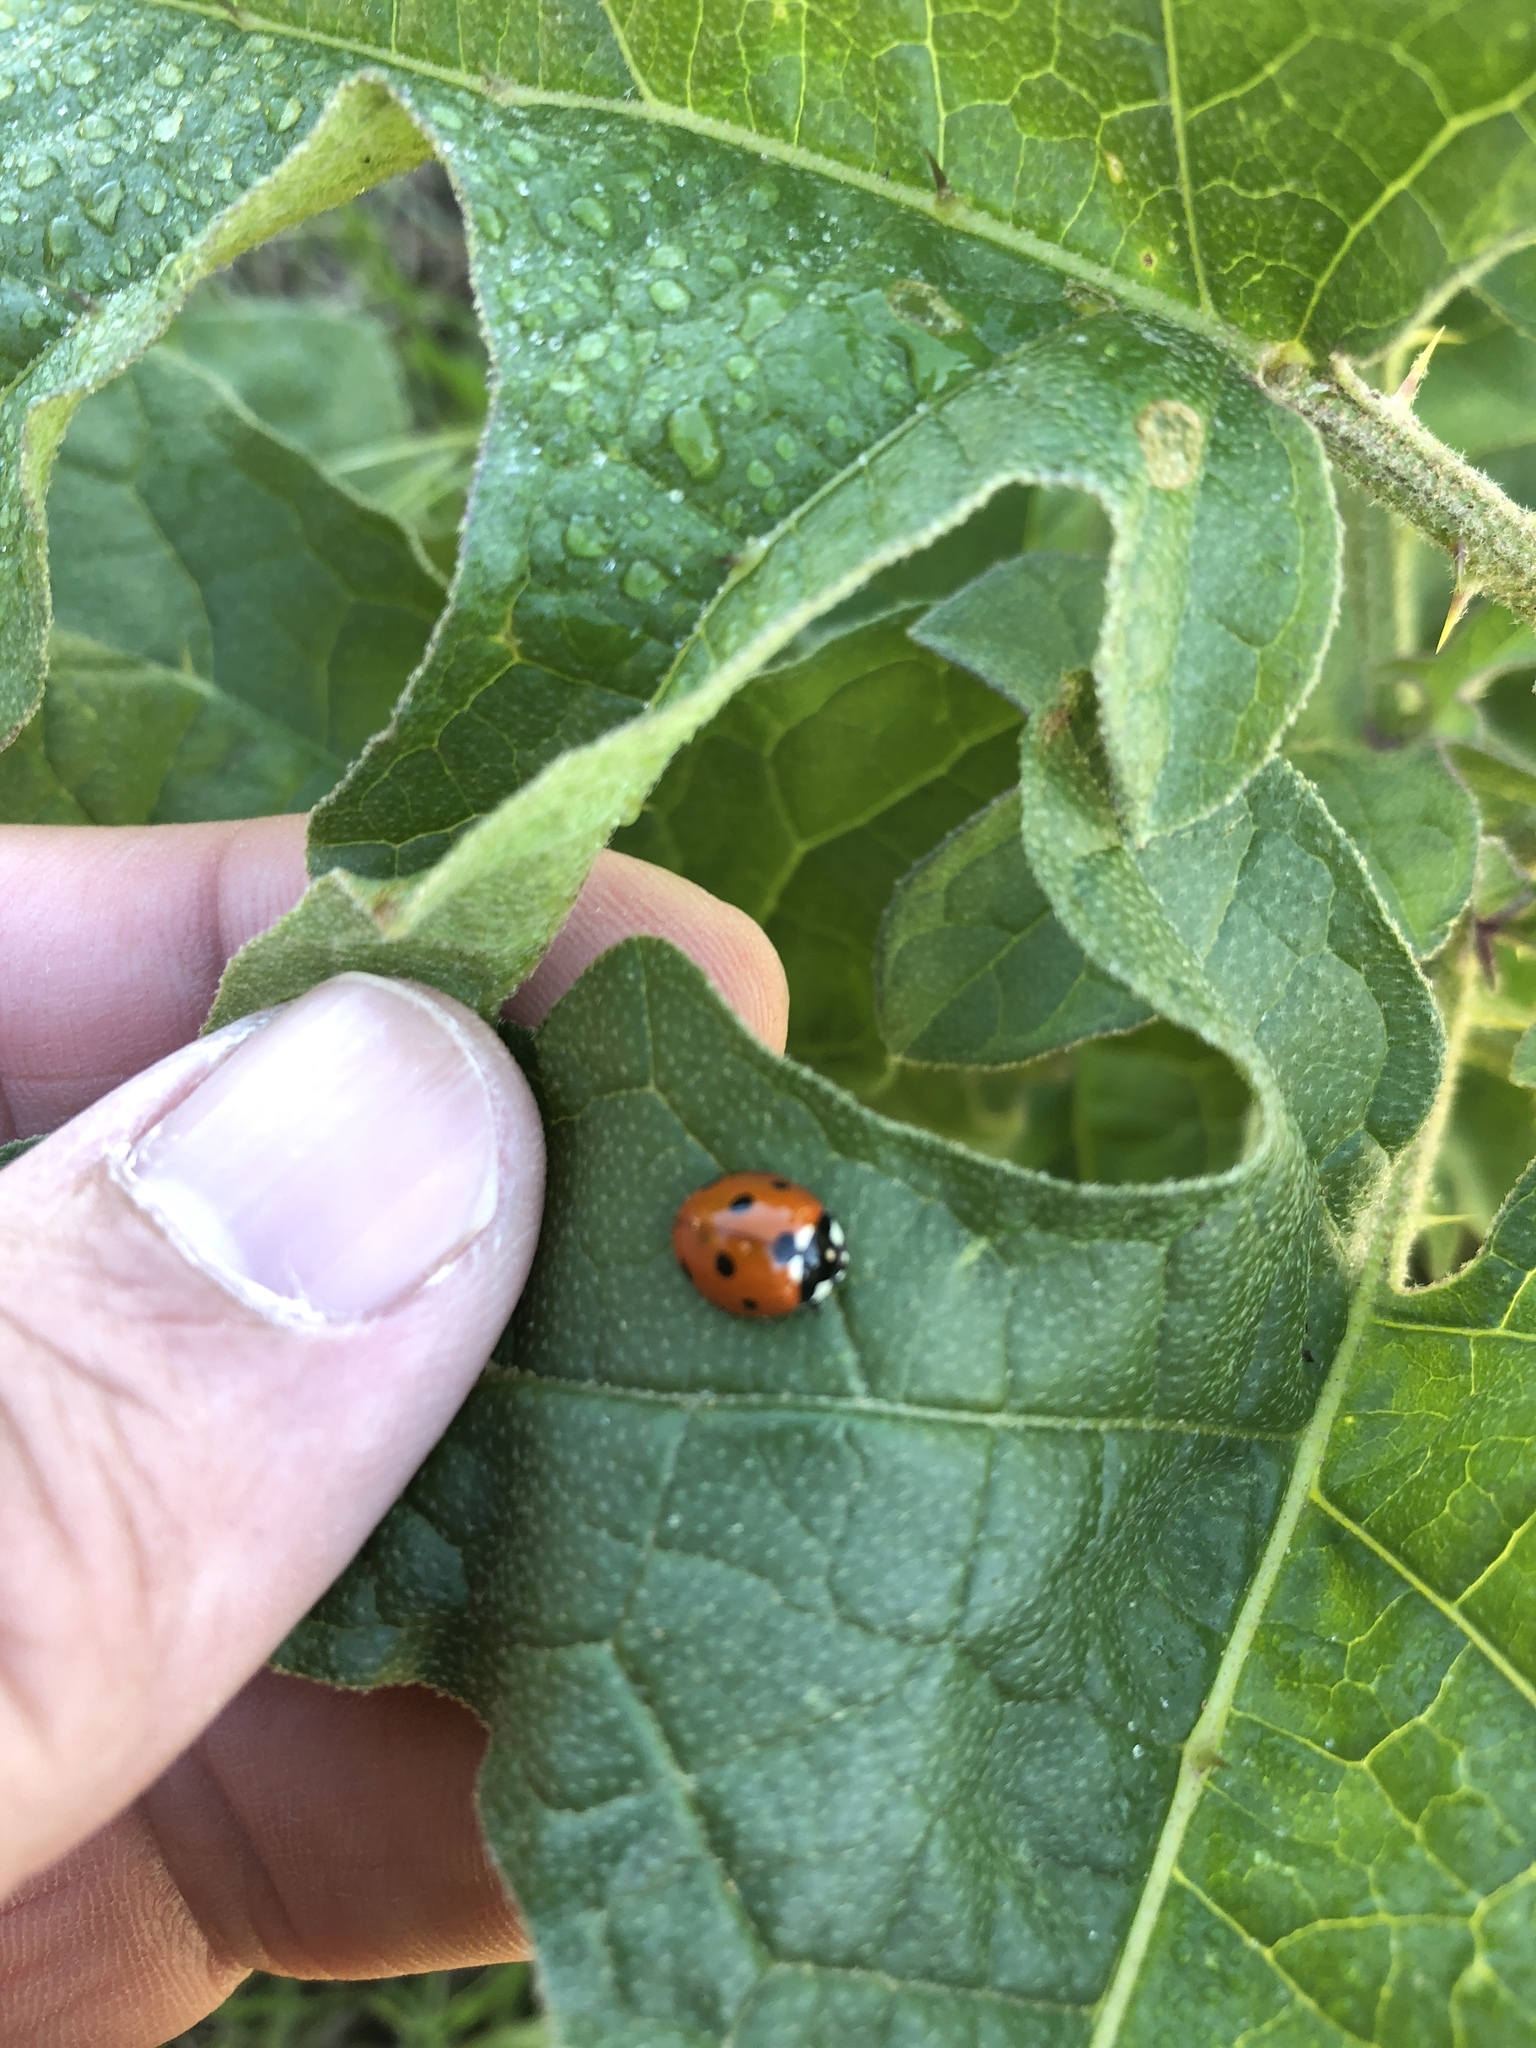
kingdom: Animalia
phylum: Arthropoda
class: Insecta
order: Coleoptera
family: Coccinellidae
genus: Coccinella
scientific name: Coccinella septempunctata
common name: Sevenspotted lady beetle
